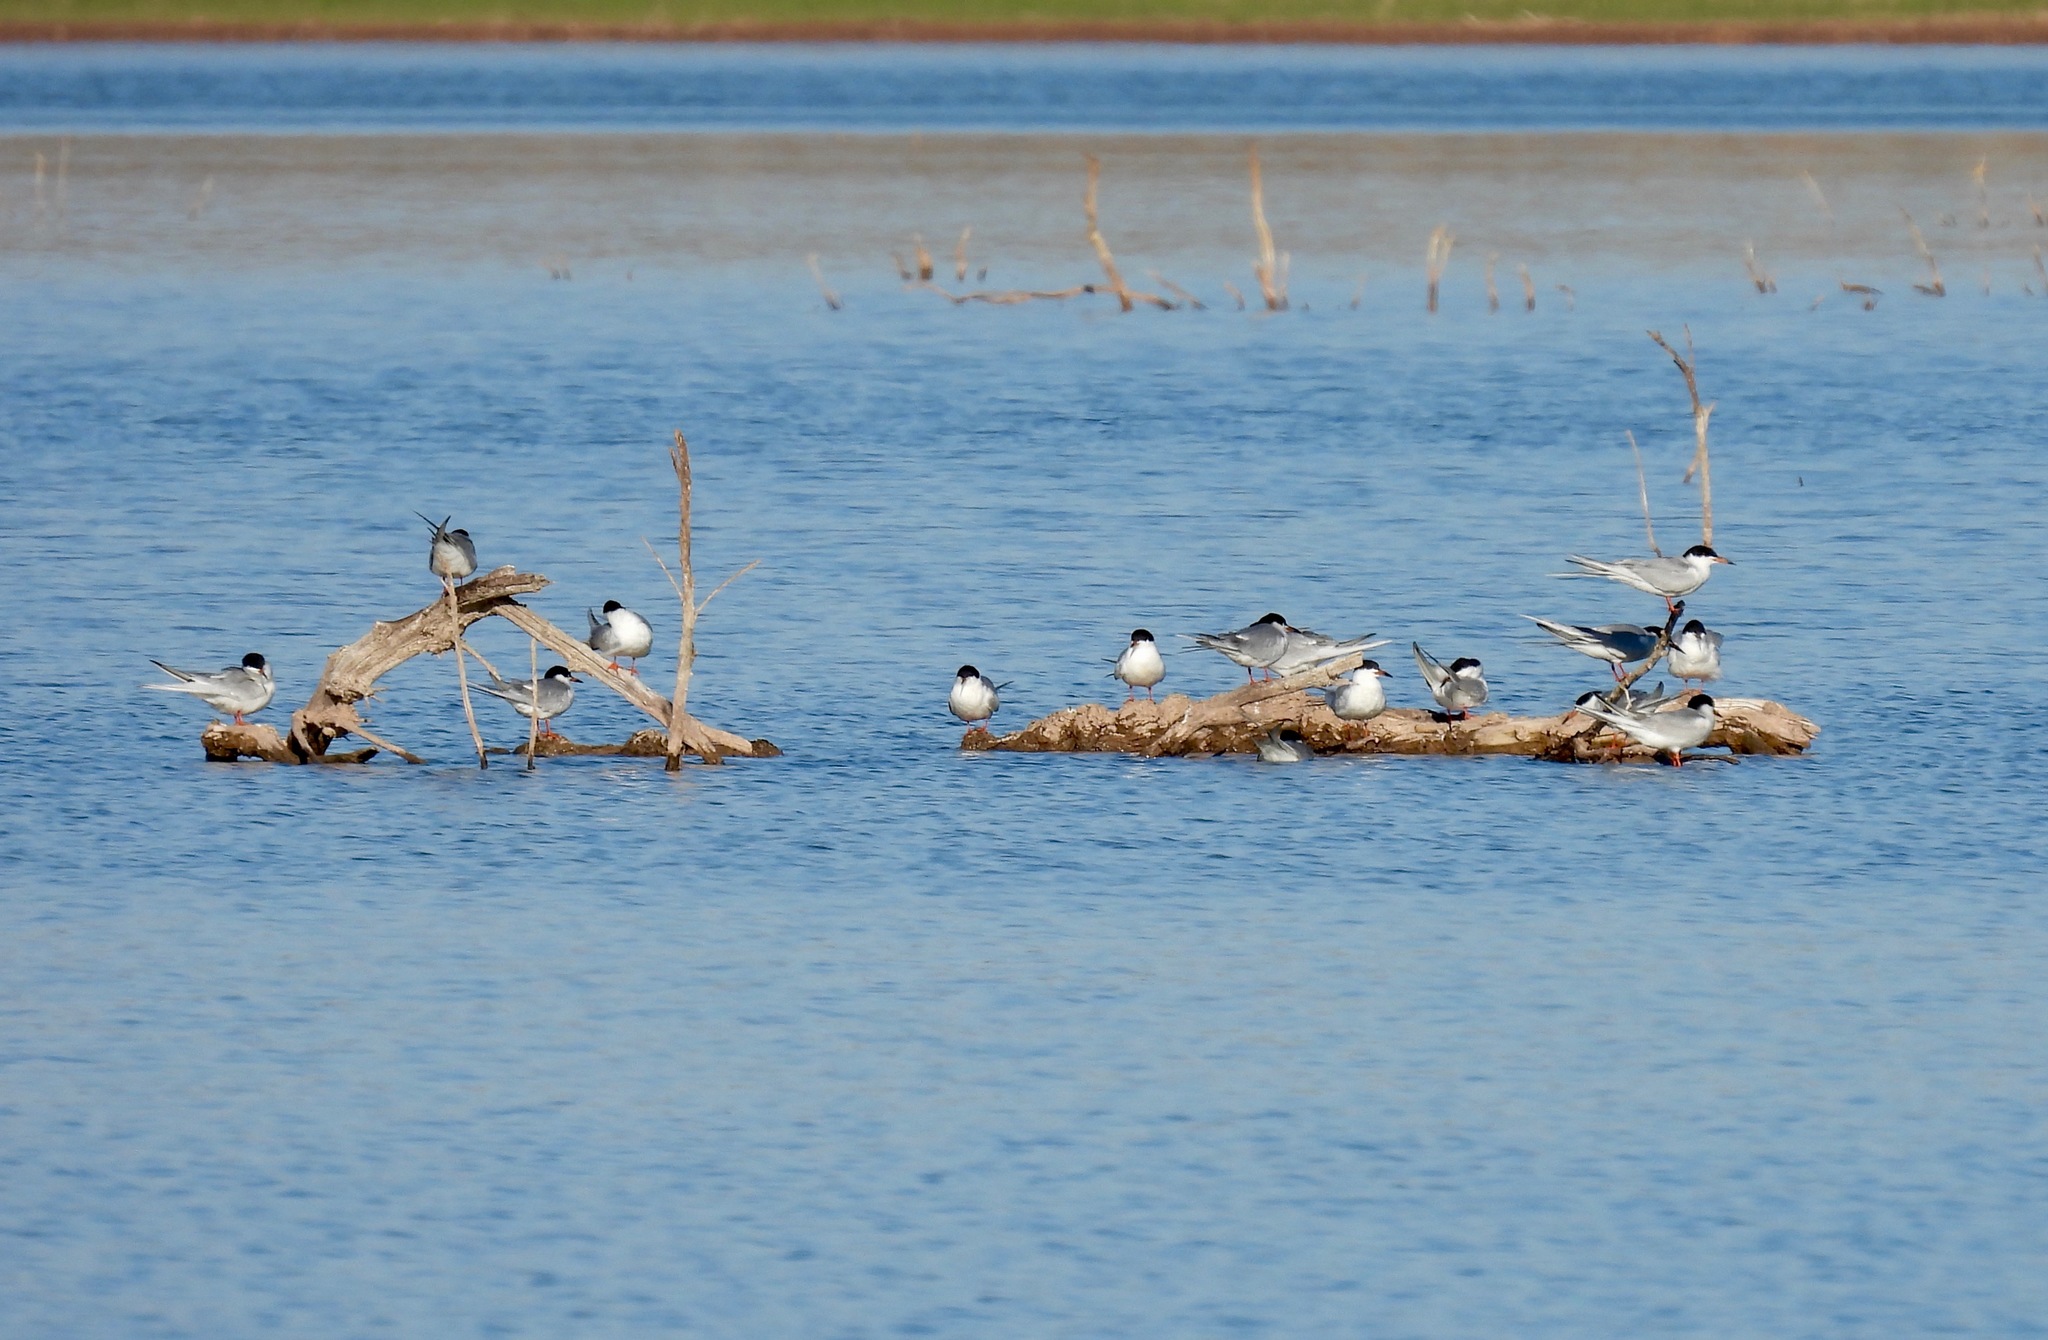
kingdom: Animalia
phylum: Chordata
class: Aves
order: Charadriiformes
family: Laridae
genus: Sterna
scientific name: Sterna forsteri
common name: Forster's tern
